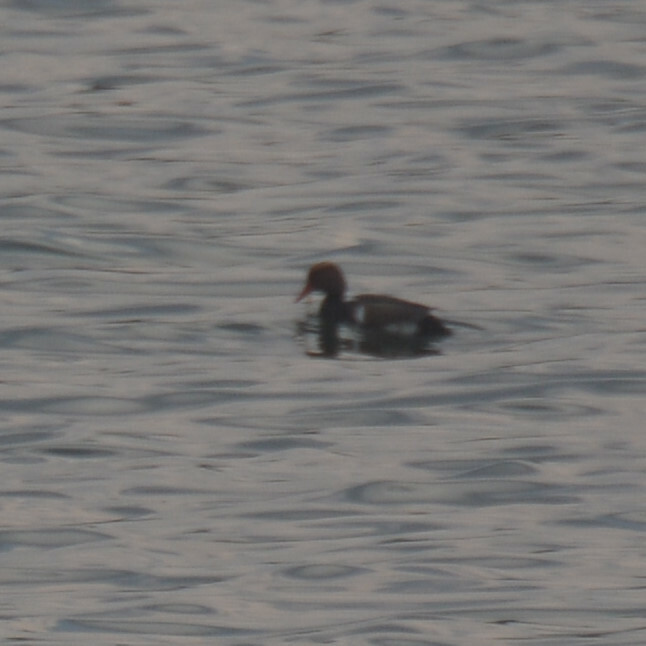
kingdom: Animalia
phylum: Chordata
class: Aves
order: Anseriformes
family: Anatidae
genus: Netta
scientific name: Netta rufina
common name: Red-crested pochard
